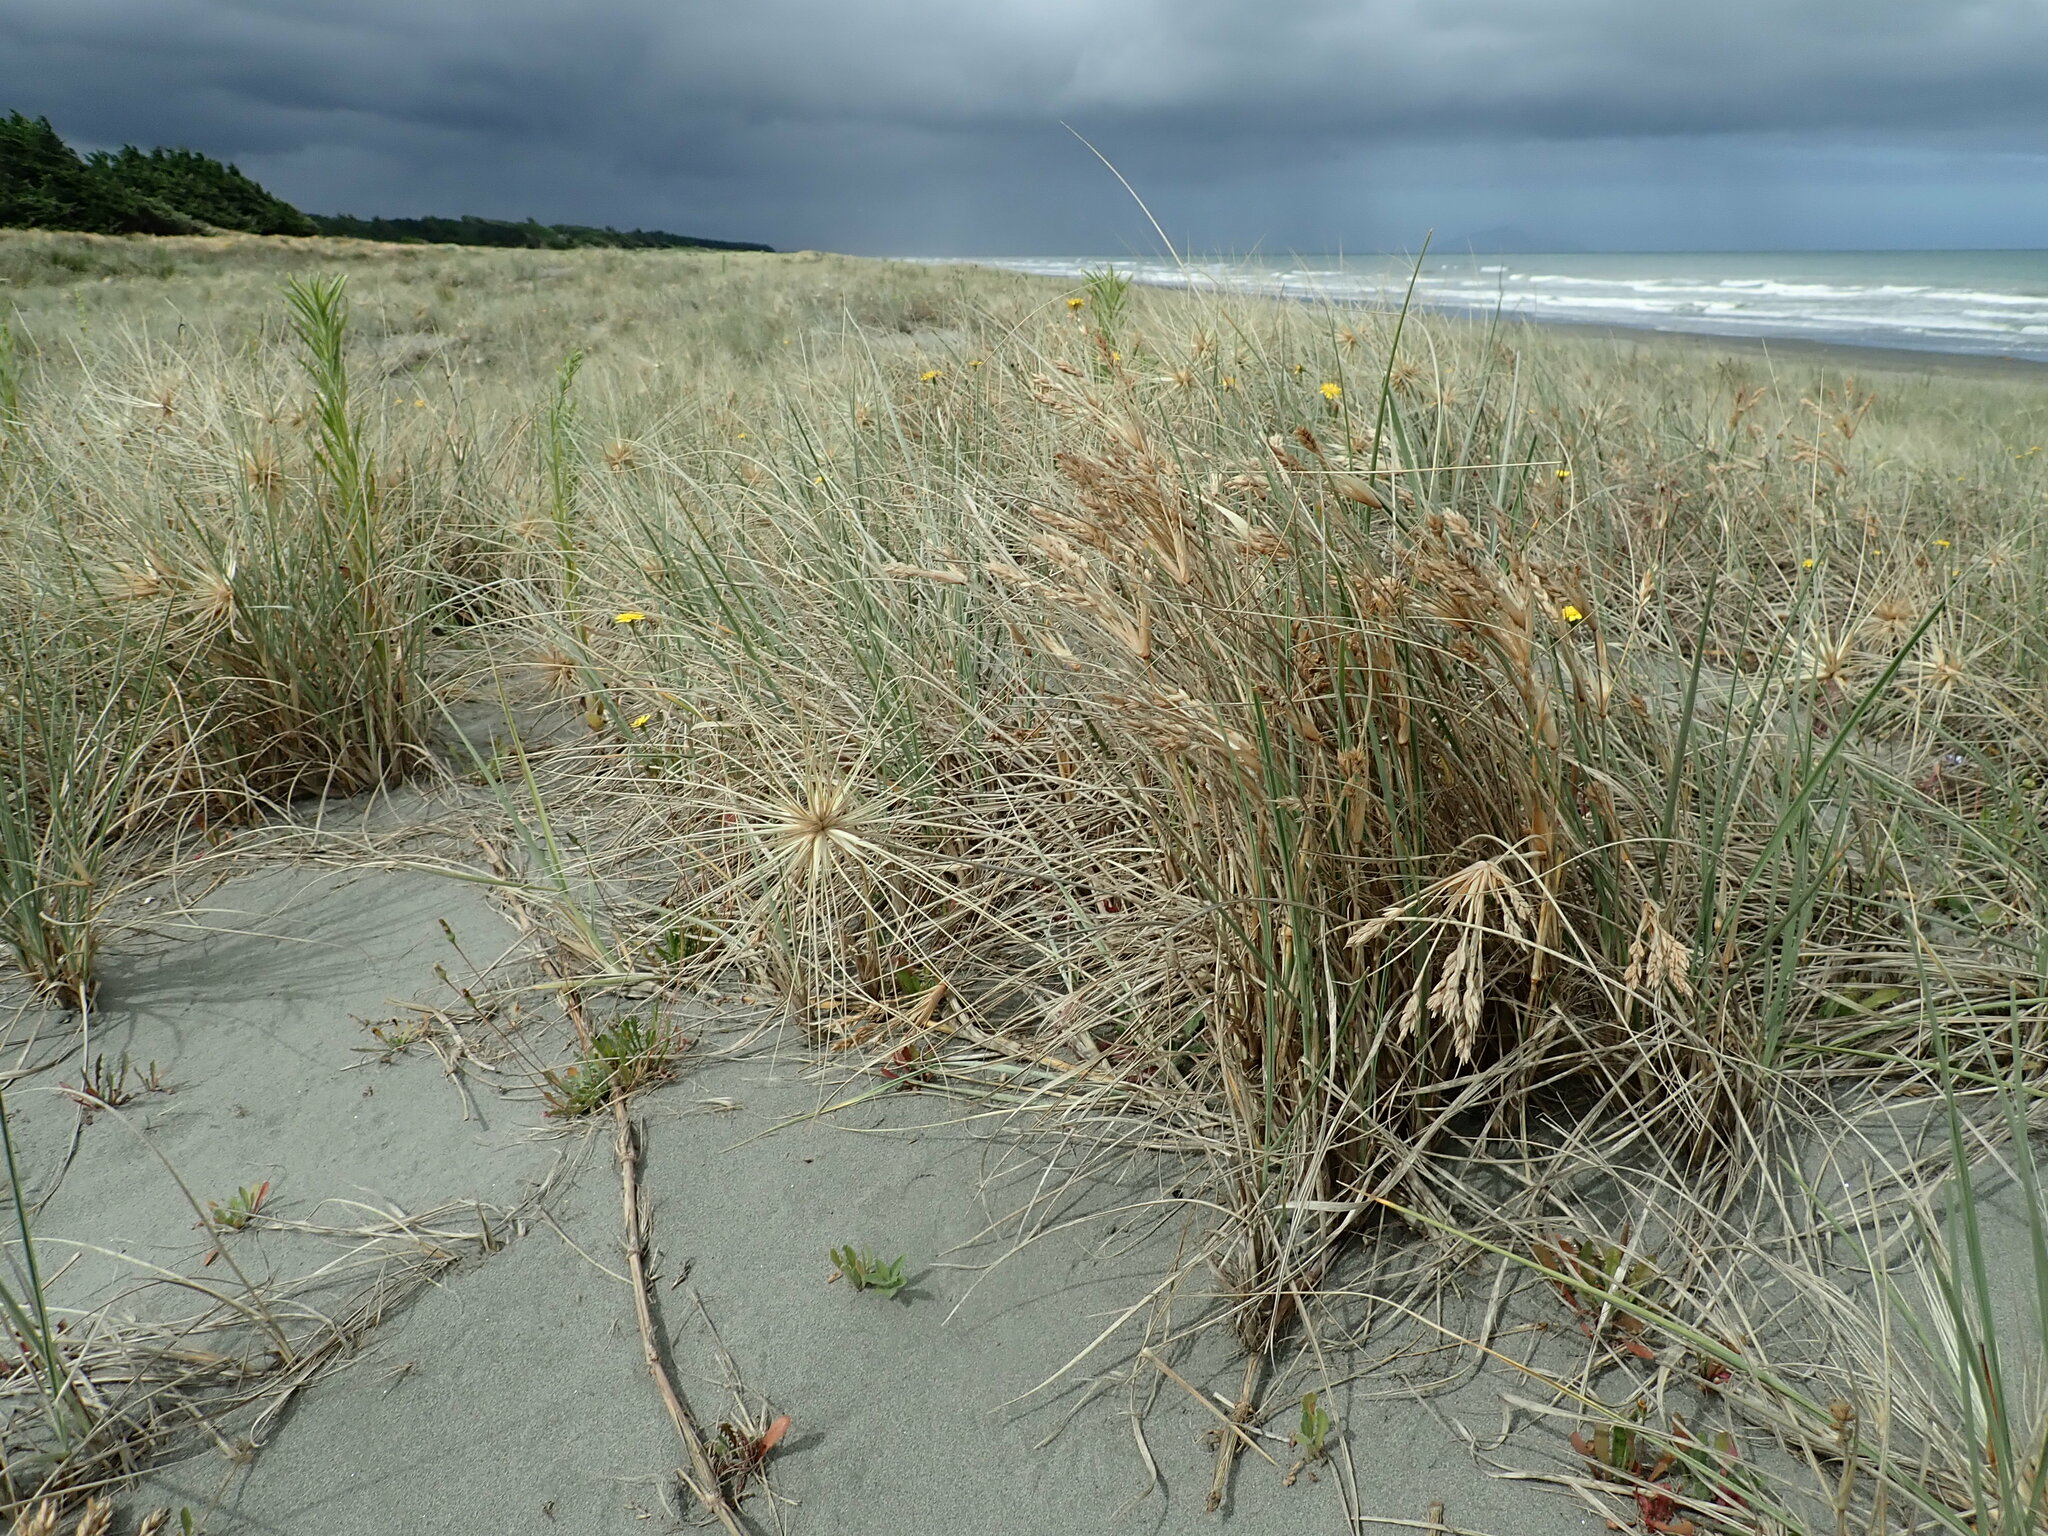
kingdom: Plantae
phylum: Tracheophyta
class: Liliopsida
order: Poales
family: Poaceae
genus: Spinifex
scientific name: Spinifex sericeus
